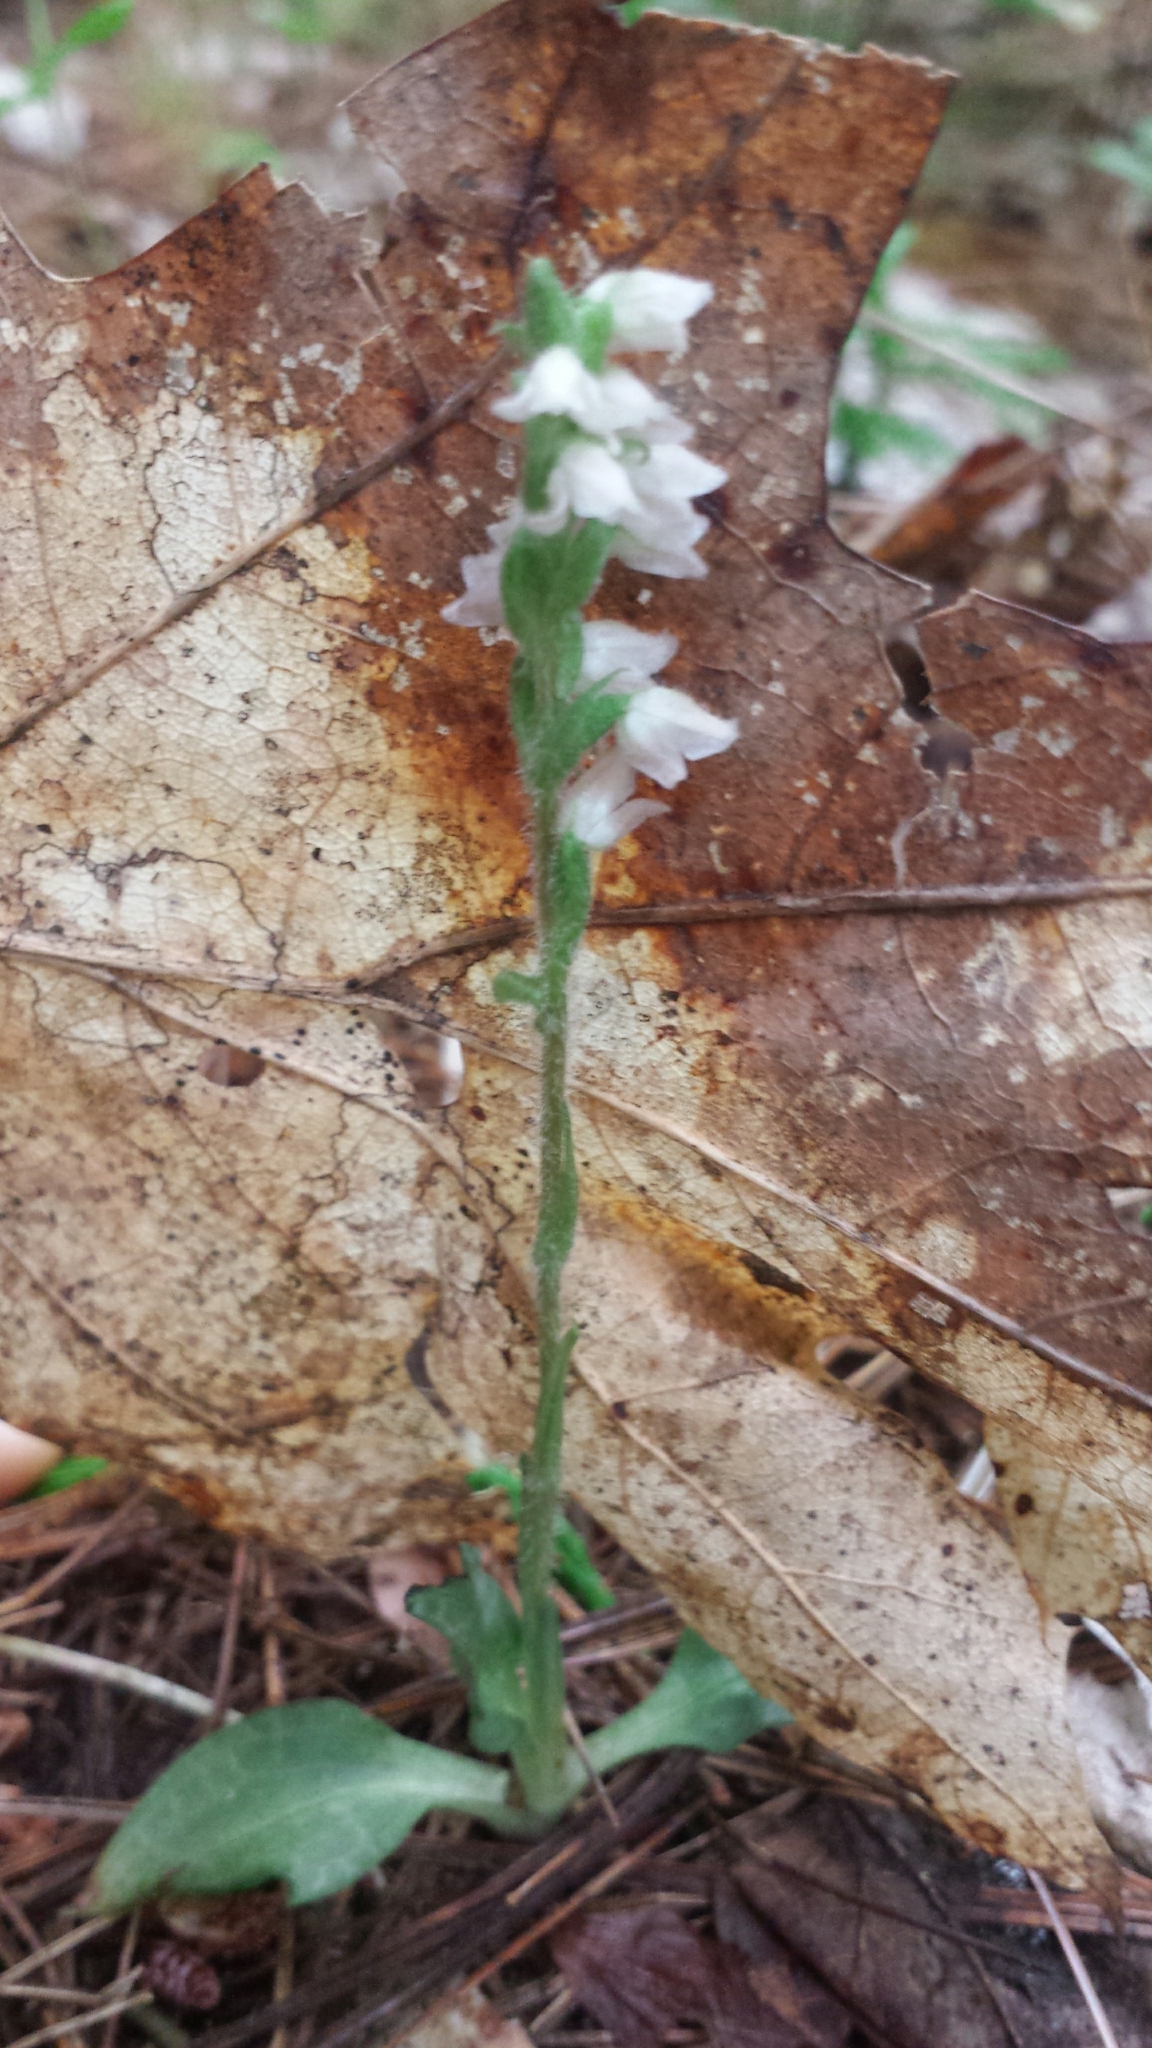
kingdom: Plantae
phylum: Tracheophyta
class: Liliopsida
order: Asparagales
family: Orchidaceae
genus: Goodyera
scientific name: Goodyera tesselata
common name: Checkered rattlesnake-plantain
